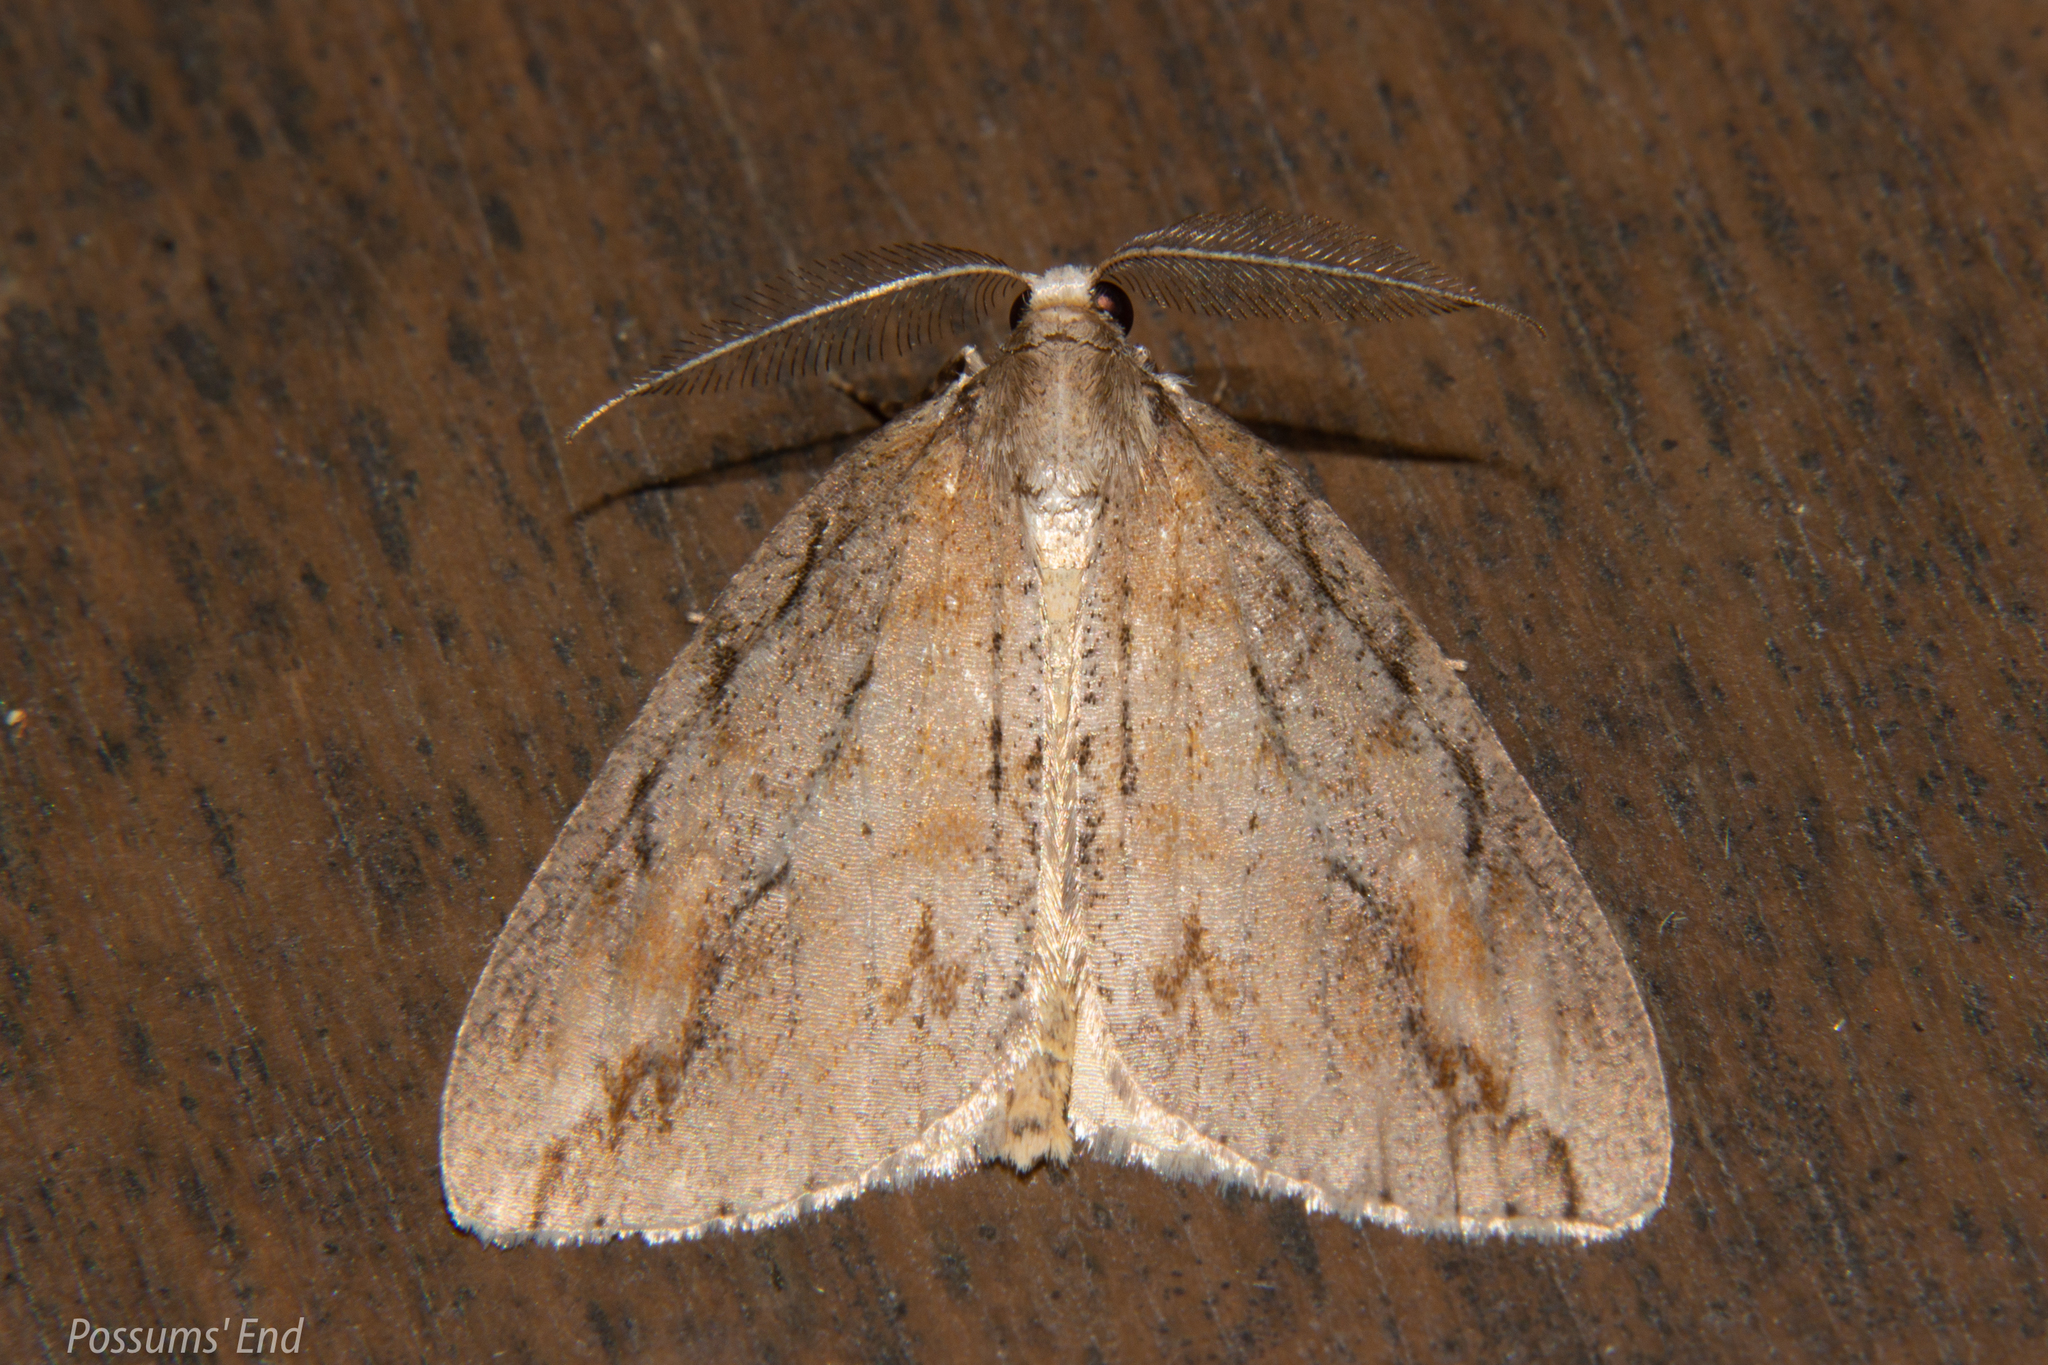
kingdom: Animalia
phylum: Arthropoda
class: Insecta
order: Lepidoptera
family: Geometridae
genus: Pseudocoremia
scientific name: Pseudocoremia lupinata
